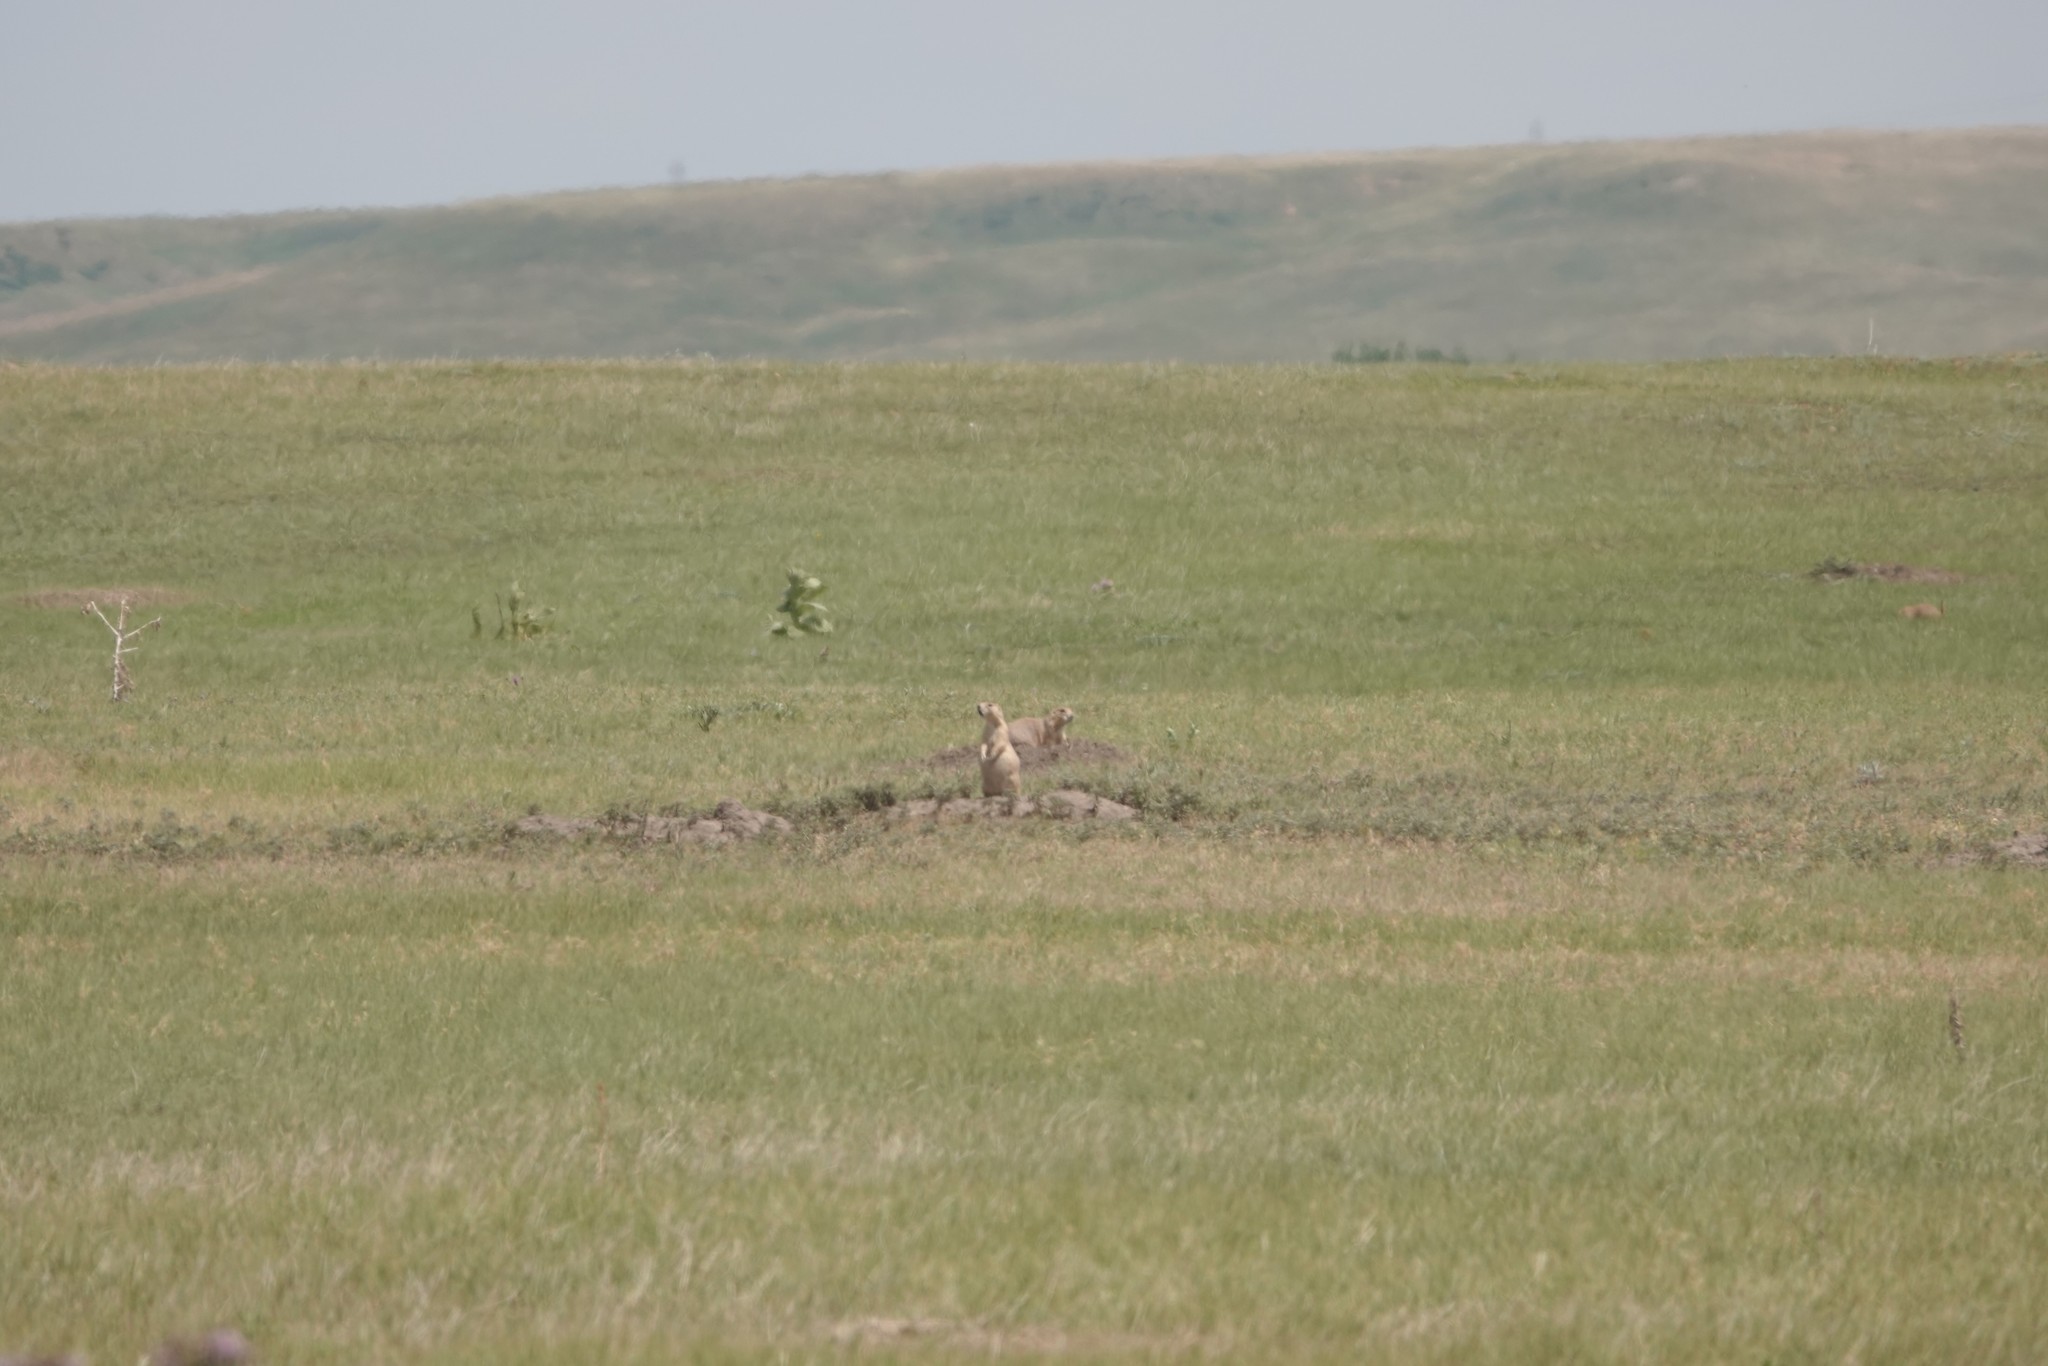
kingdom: Animalia
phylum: Chordata
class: Mammalia
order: Rodentia
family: Sciuridae
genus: Cynomys
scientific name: Cynomys ludovicianus
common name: Black-tailed prairie dog
